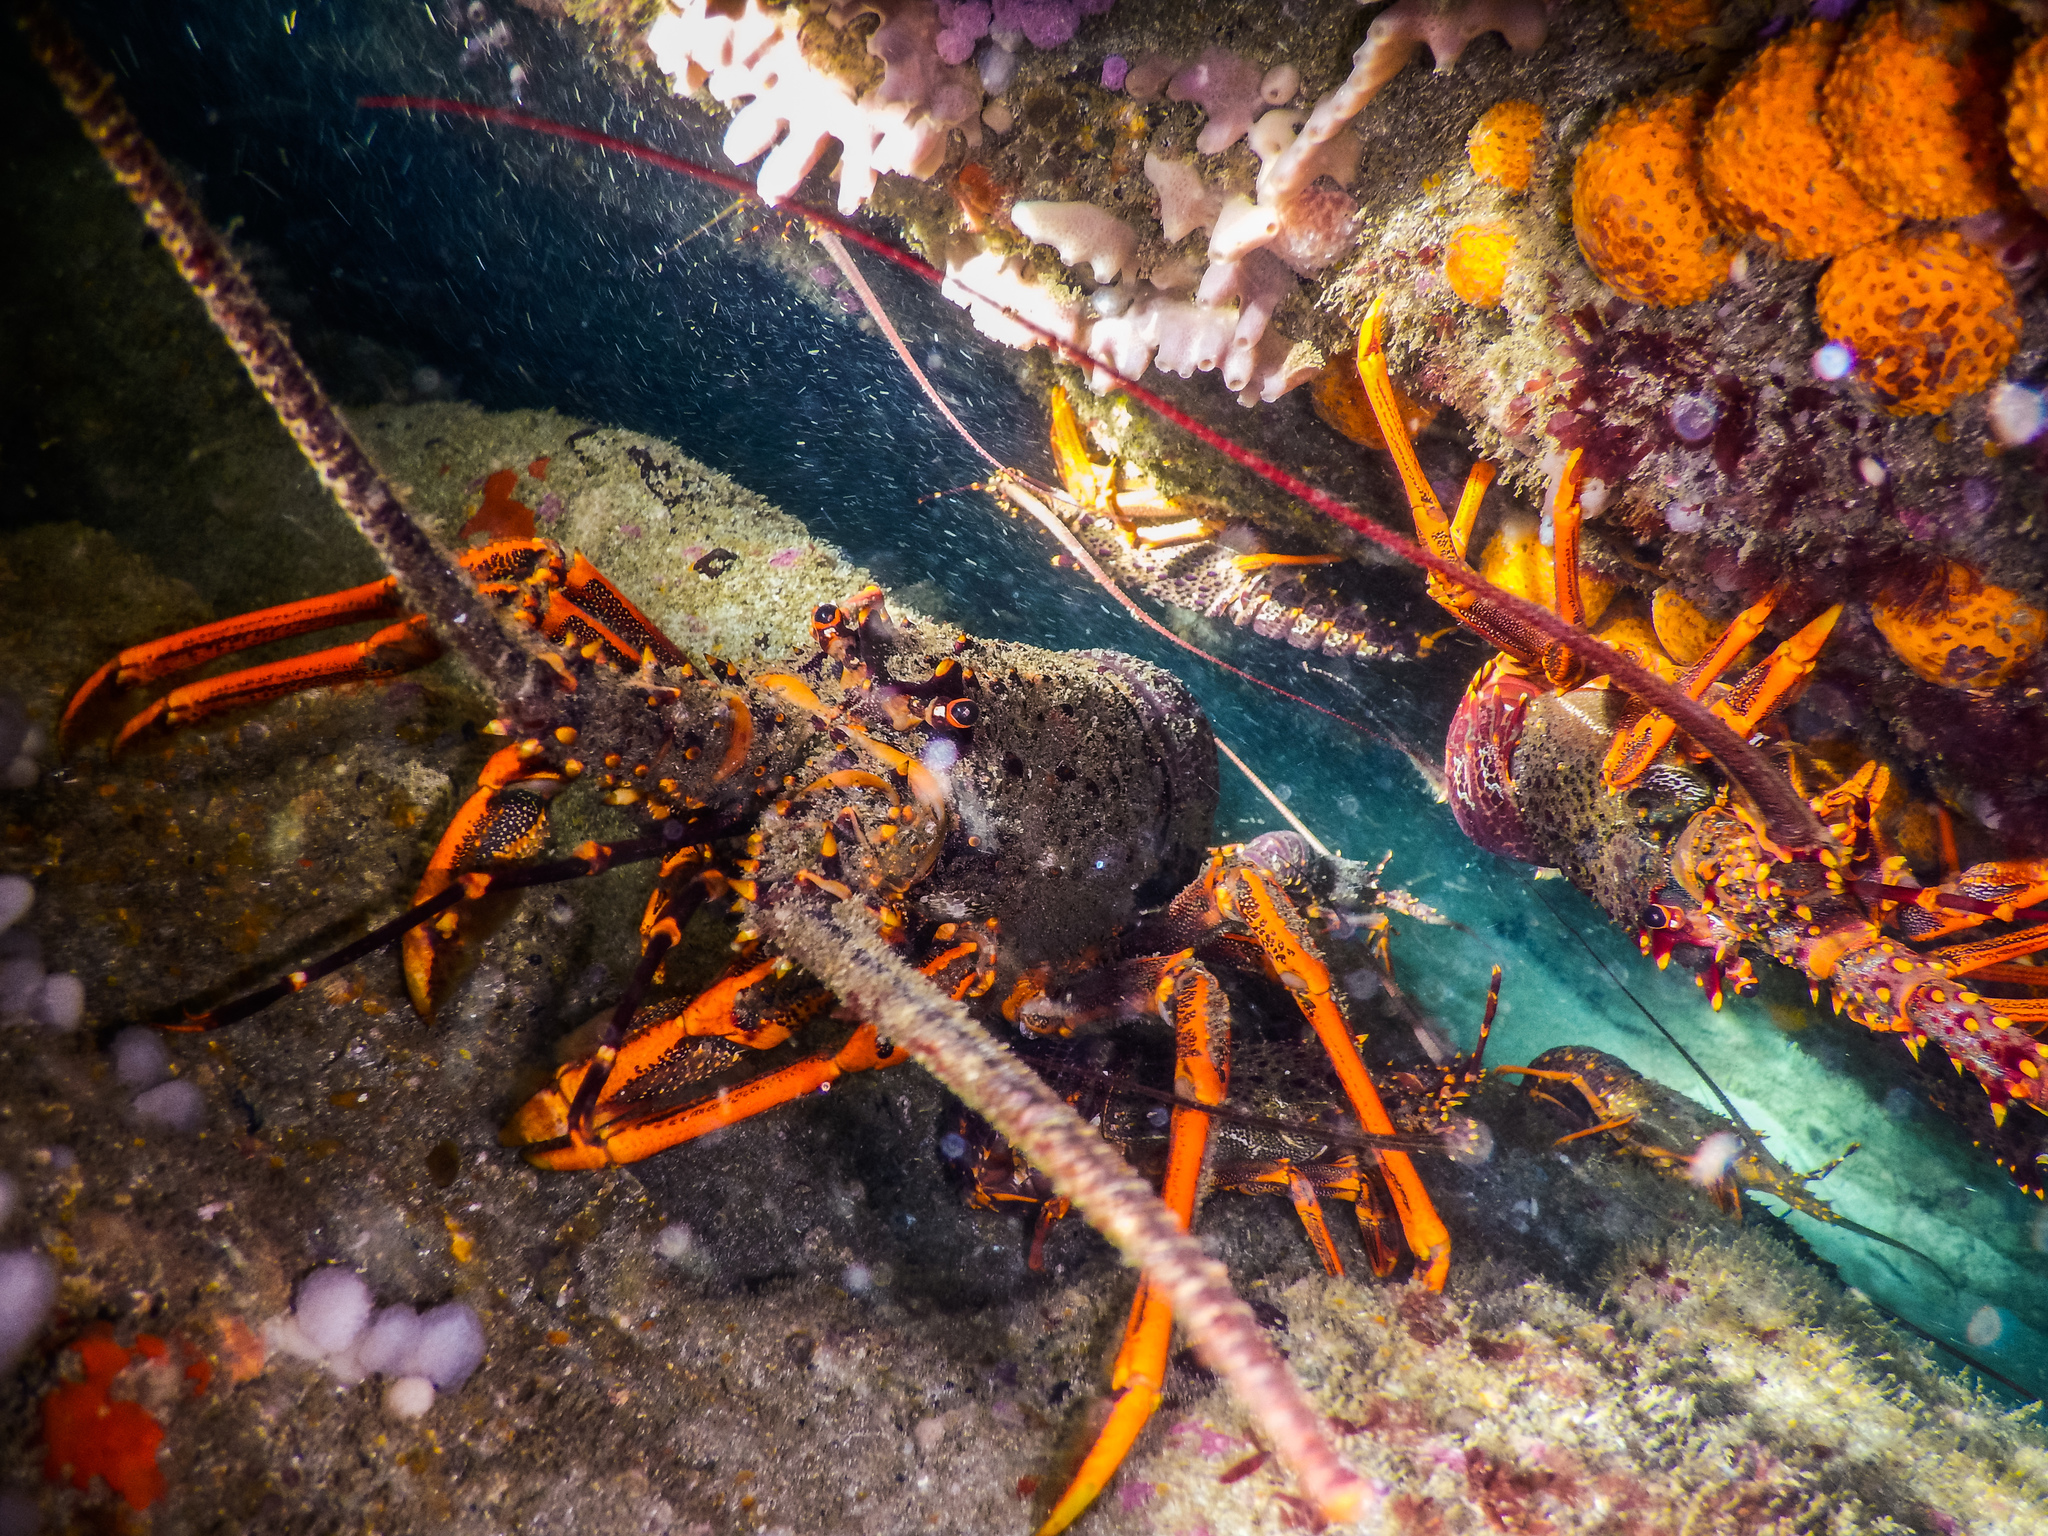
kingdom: Animalia
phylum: Arthropoda
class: Malacostraca
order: Decapoda
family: Palinuridae
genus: Jasus
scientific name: Jasus edwardsii
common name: Red rock lobster
